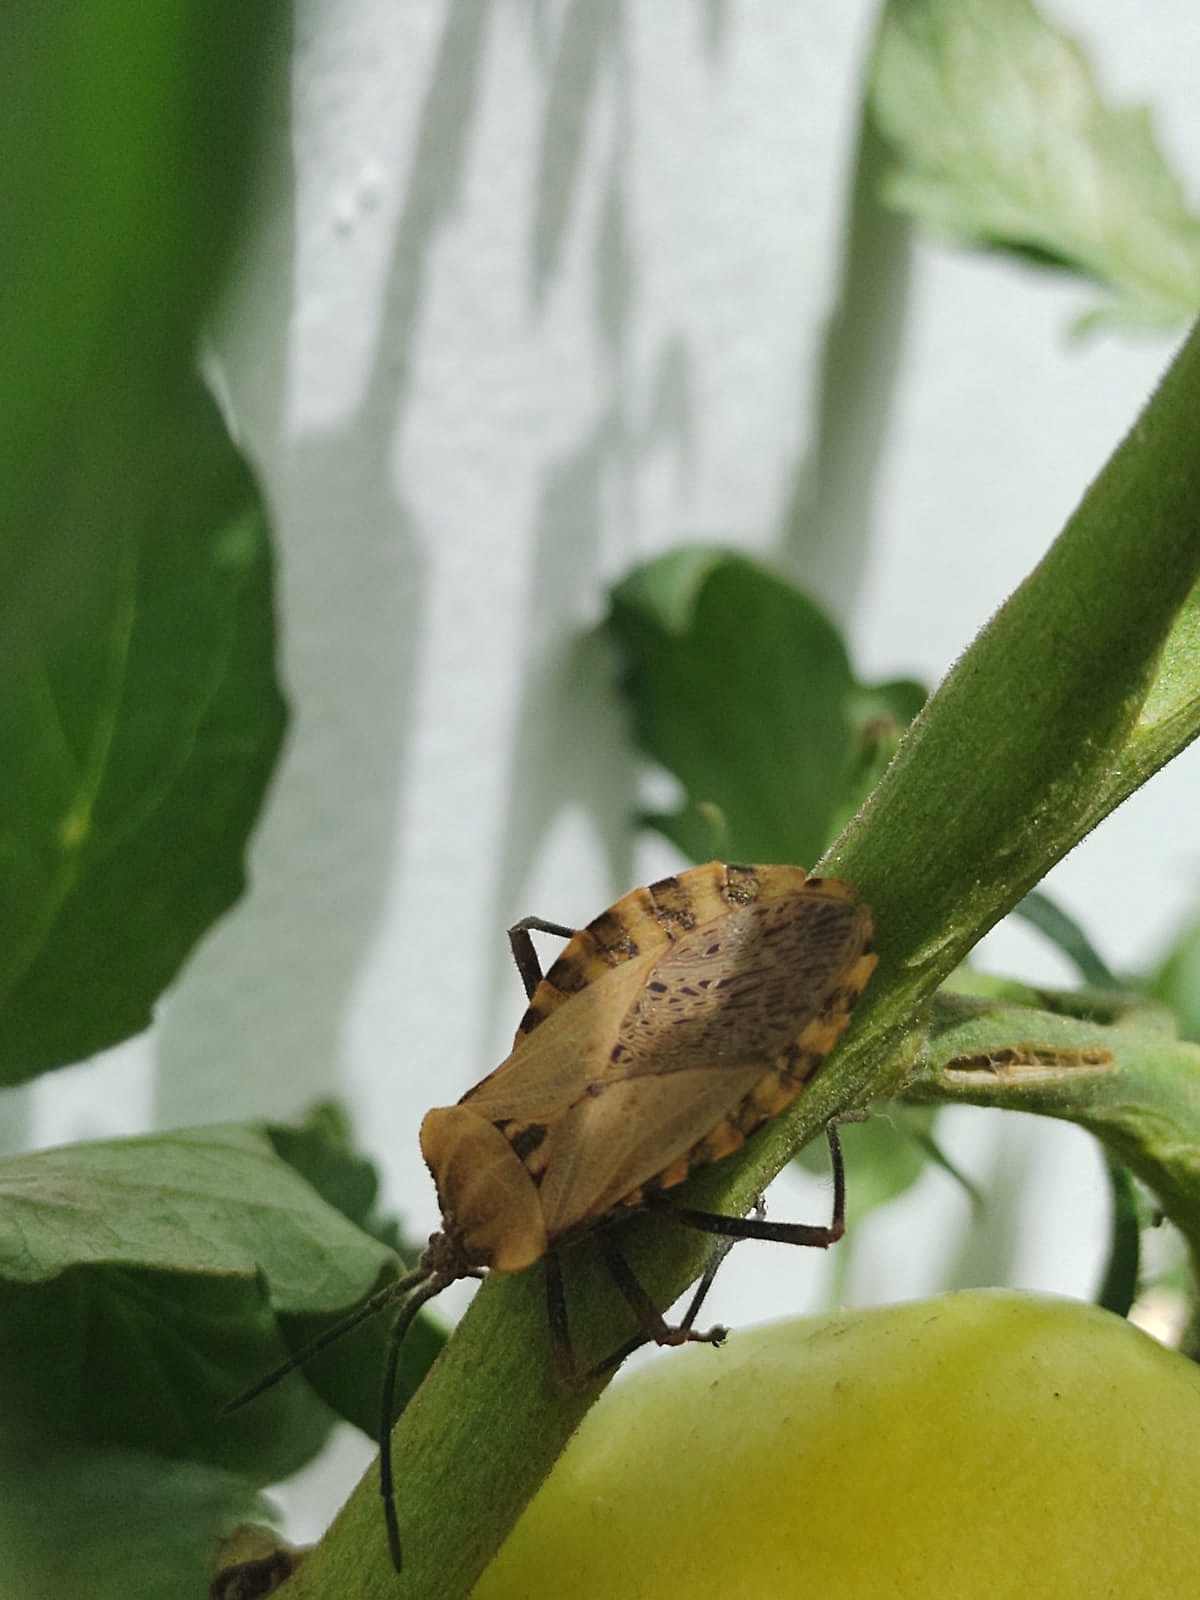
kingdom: Animalia
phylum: Arthropoda
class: Insecta
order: Hemiptera
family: Coreidae
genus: Spartocera
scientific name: Spartocera fusca
